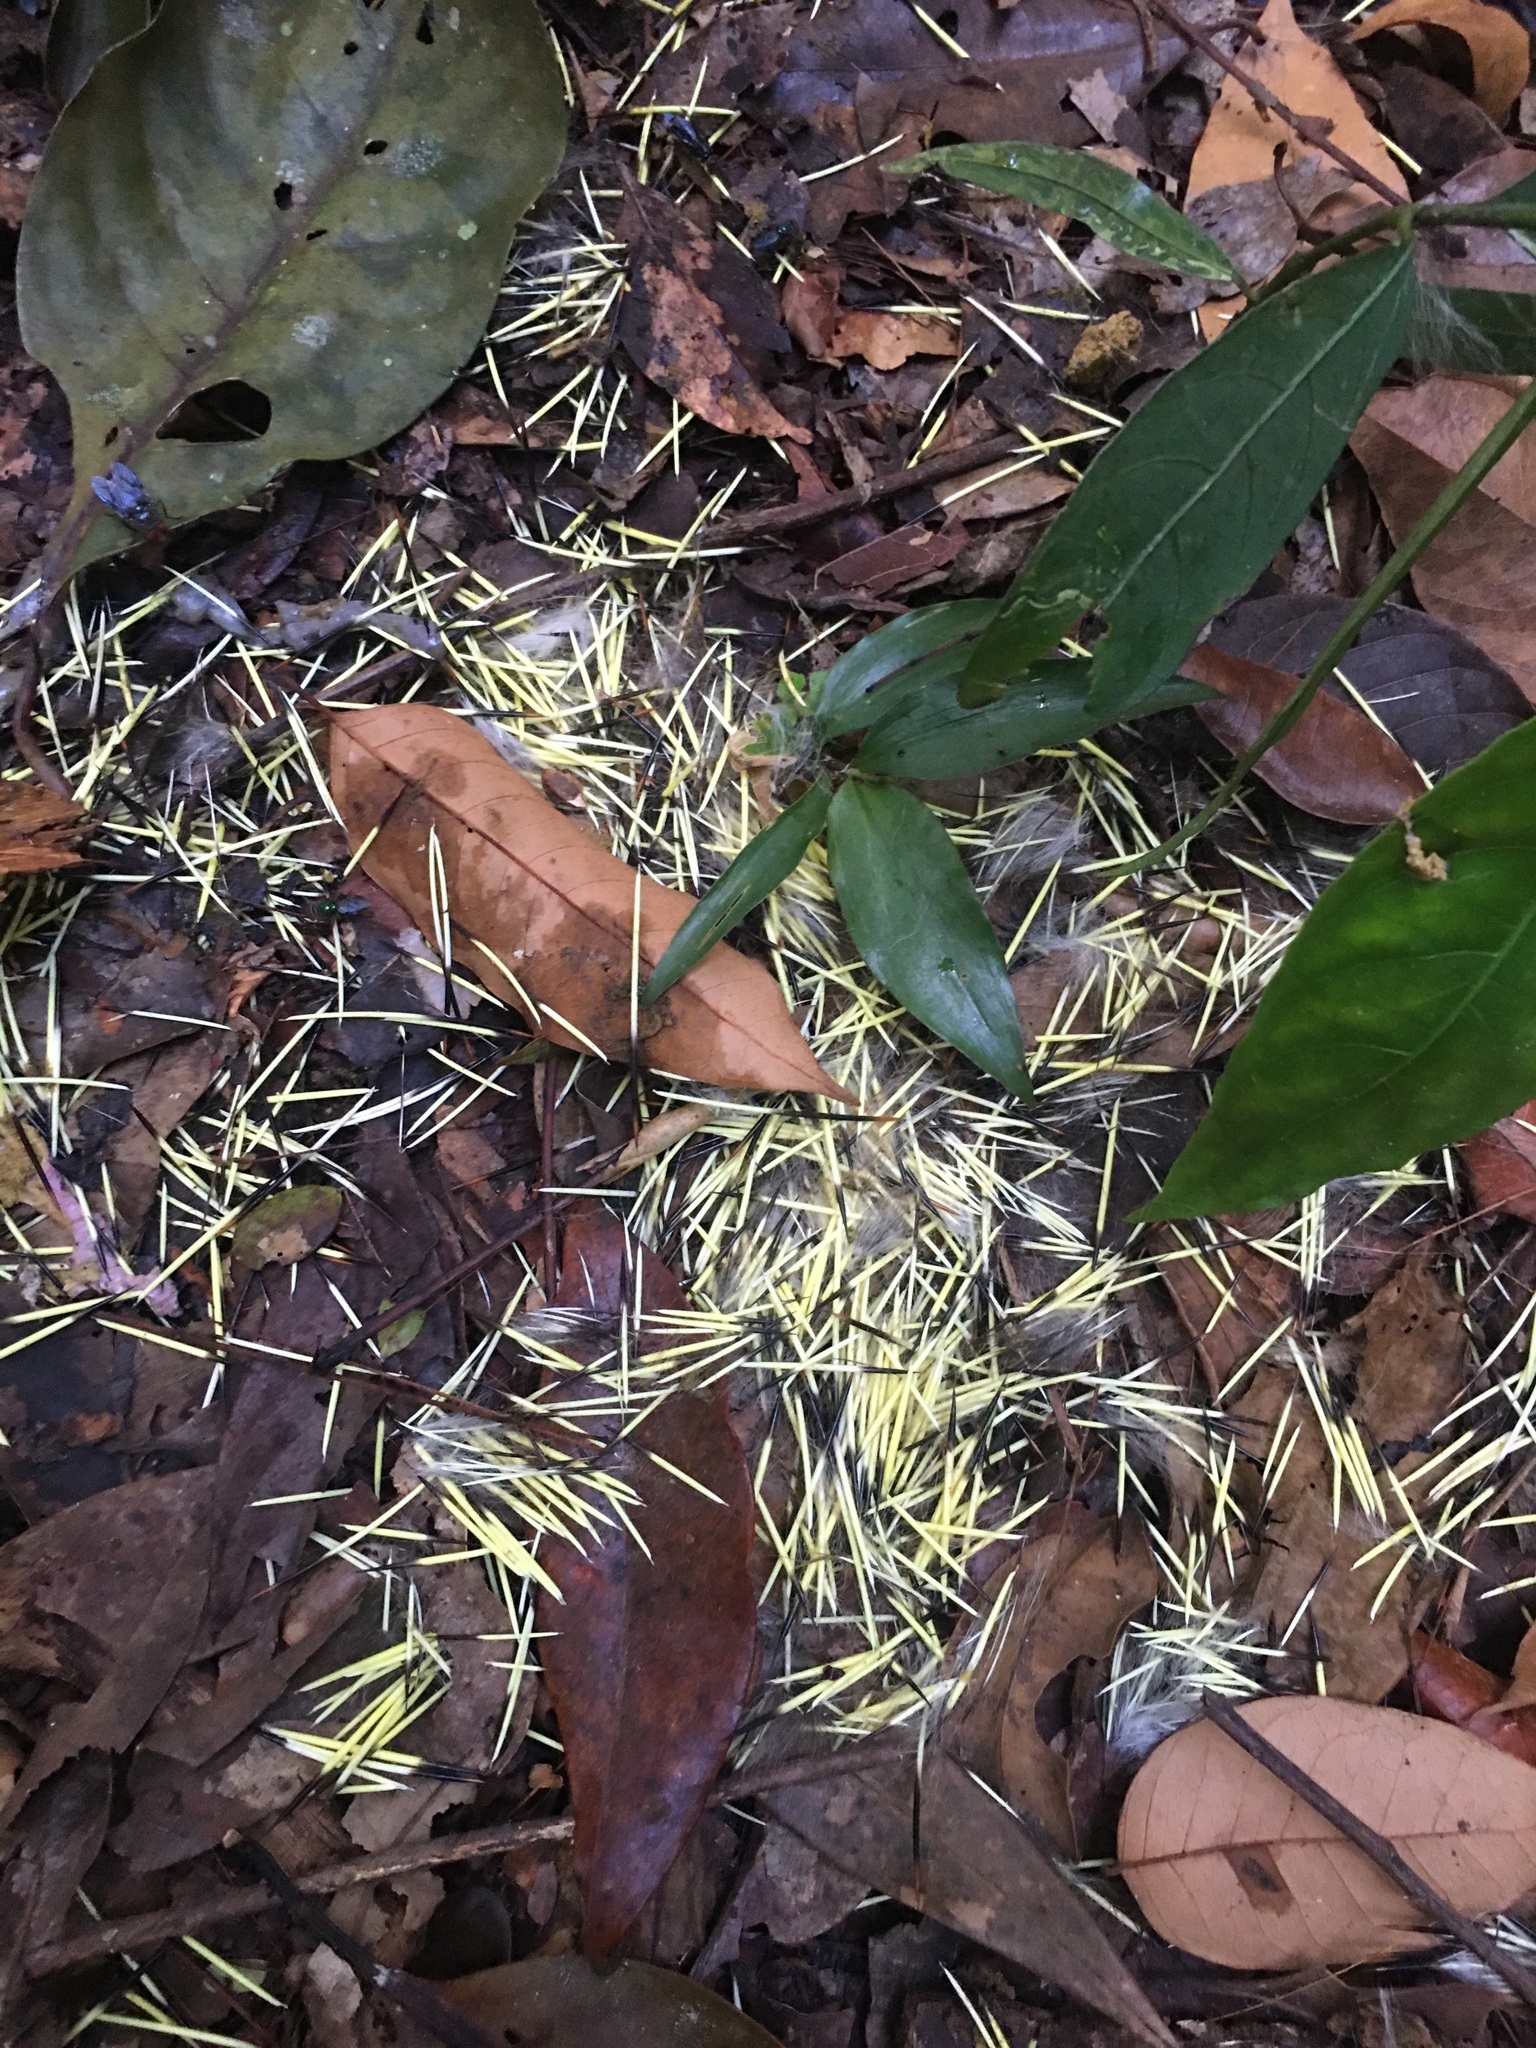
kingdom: Animalia
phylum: Chordata
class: Mammalia
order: Rodentia
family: Erethizontidae
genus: Coendou
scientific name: Coendou speratus
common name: Pernambuco dwarf porcupine
